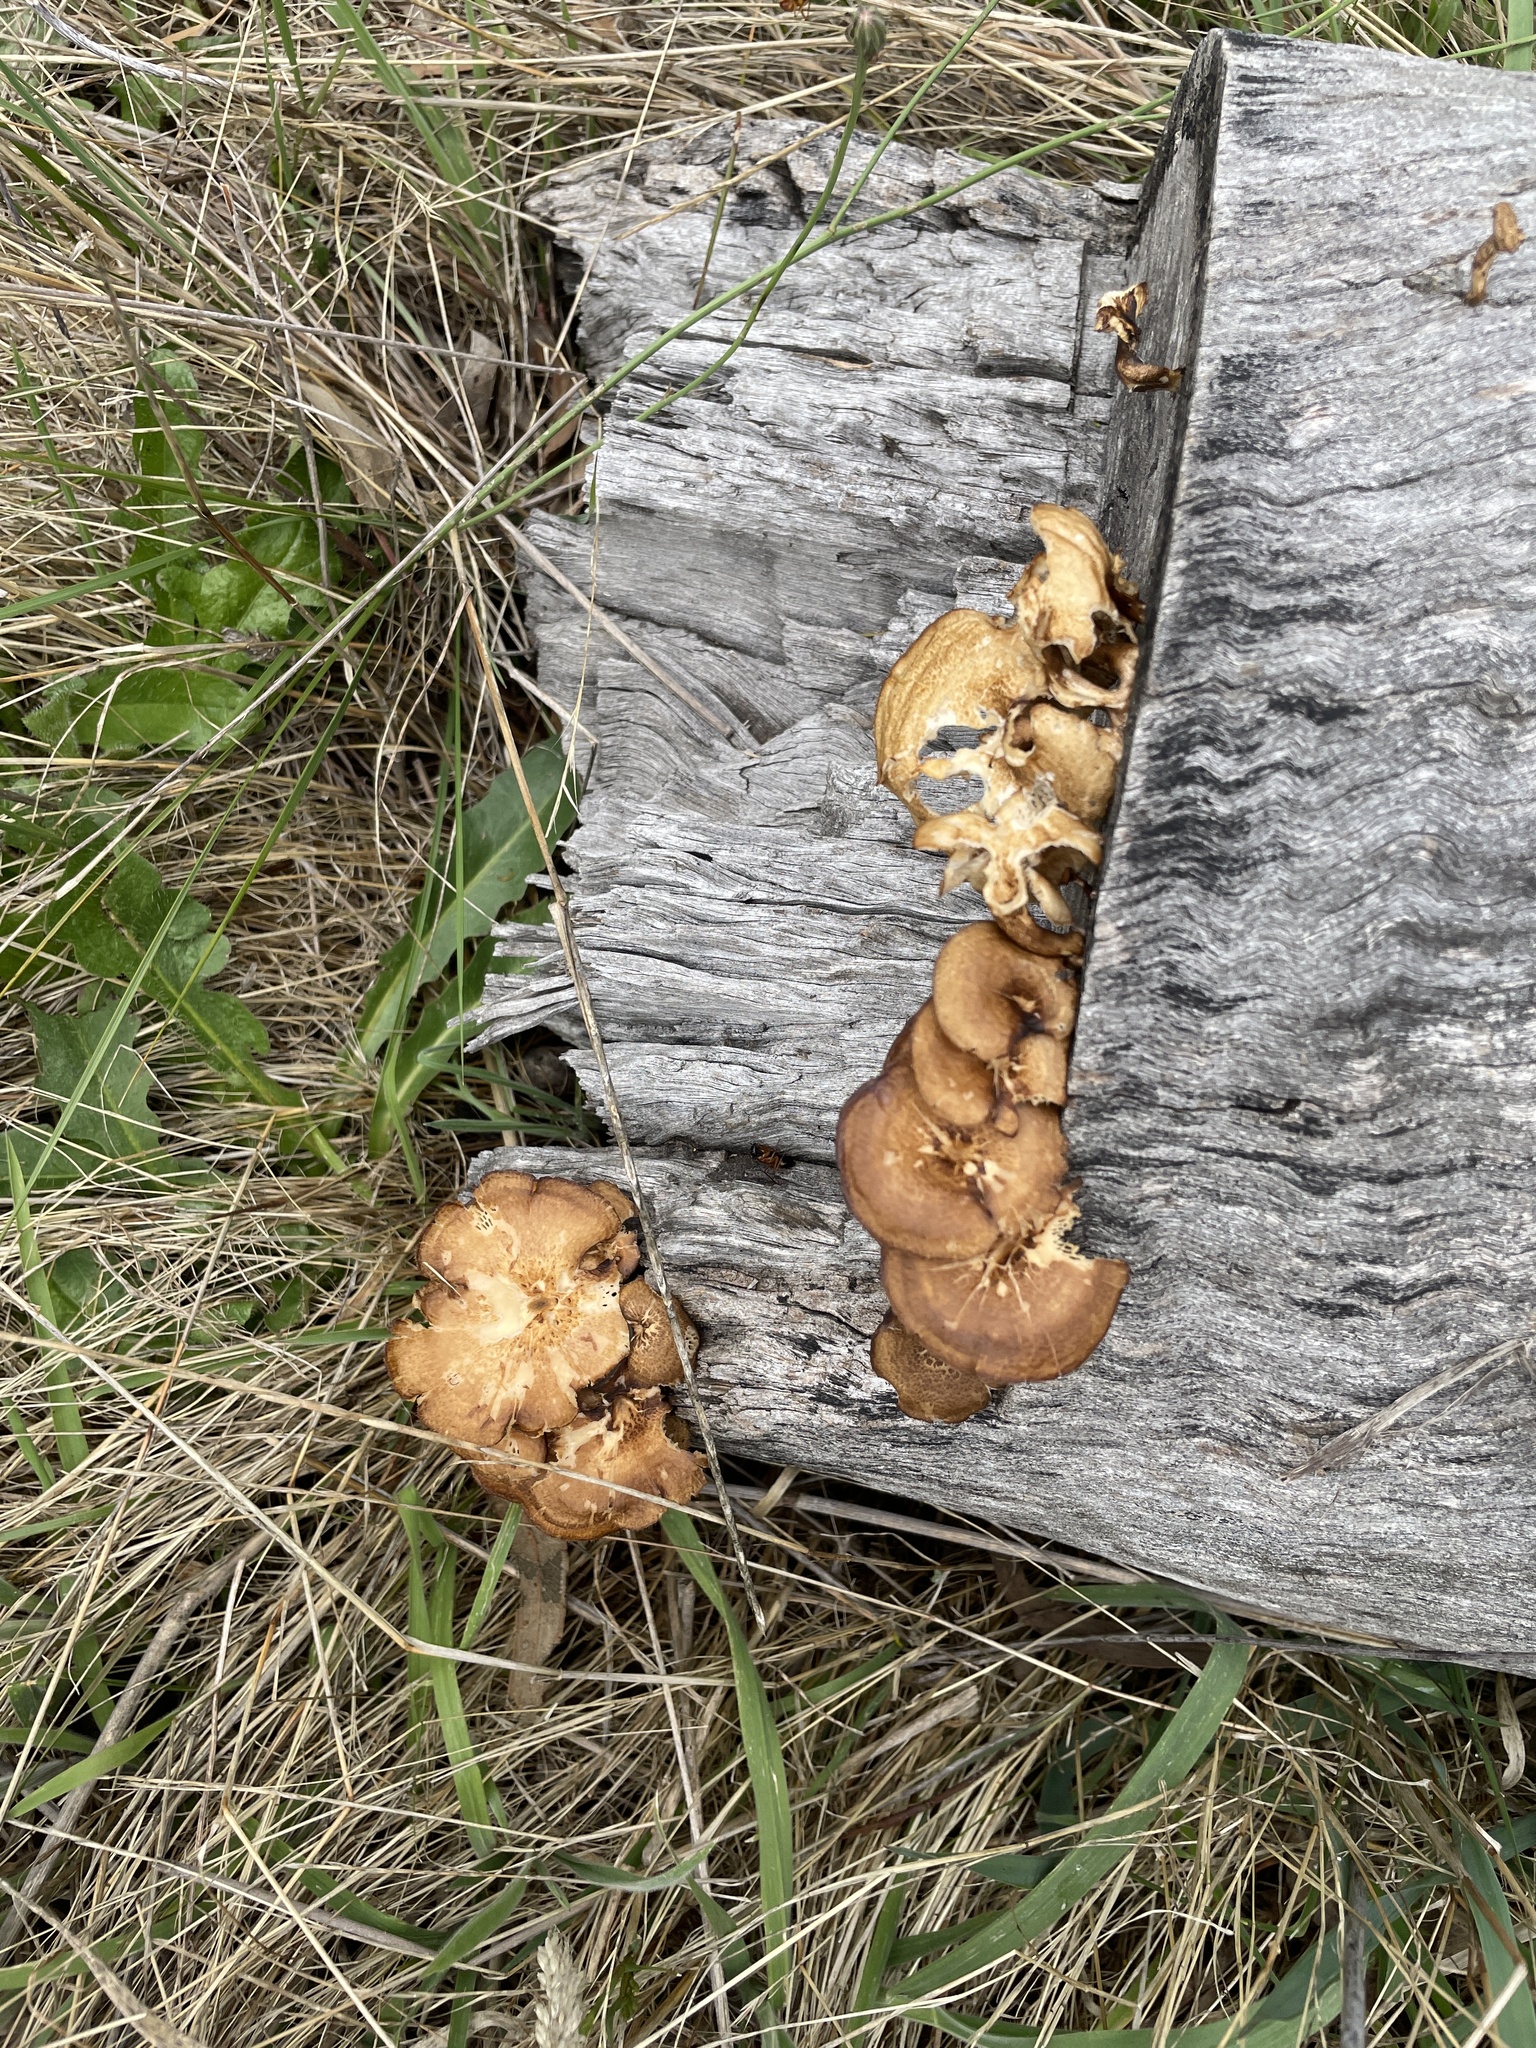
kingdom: Fungi
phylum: Basidiomycota
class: Agaricomycetes
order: Polyporales
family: Polyporaceae
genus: Lentinus
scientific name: Lentinus arcularius
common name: Spring polypore
